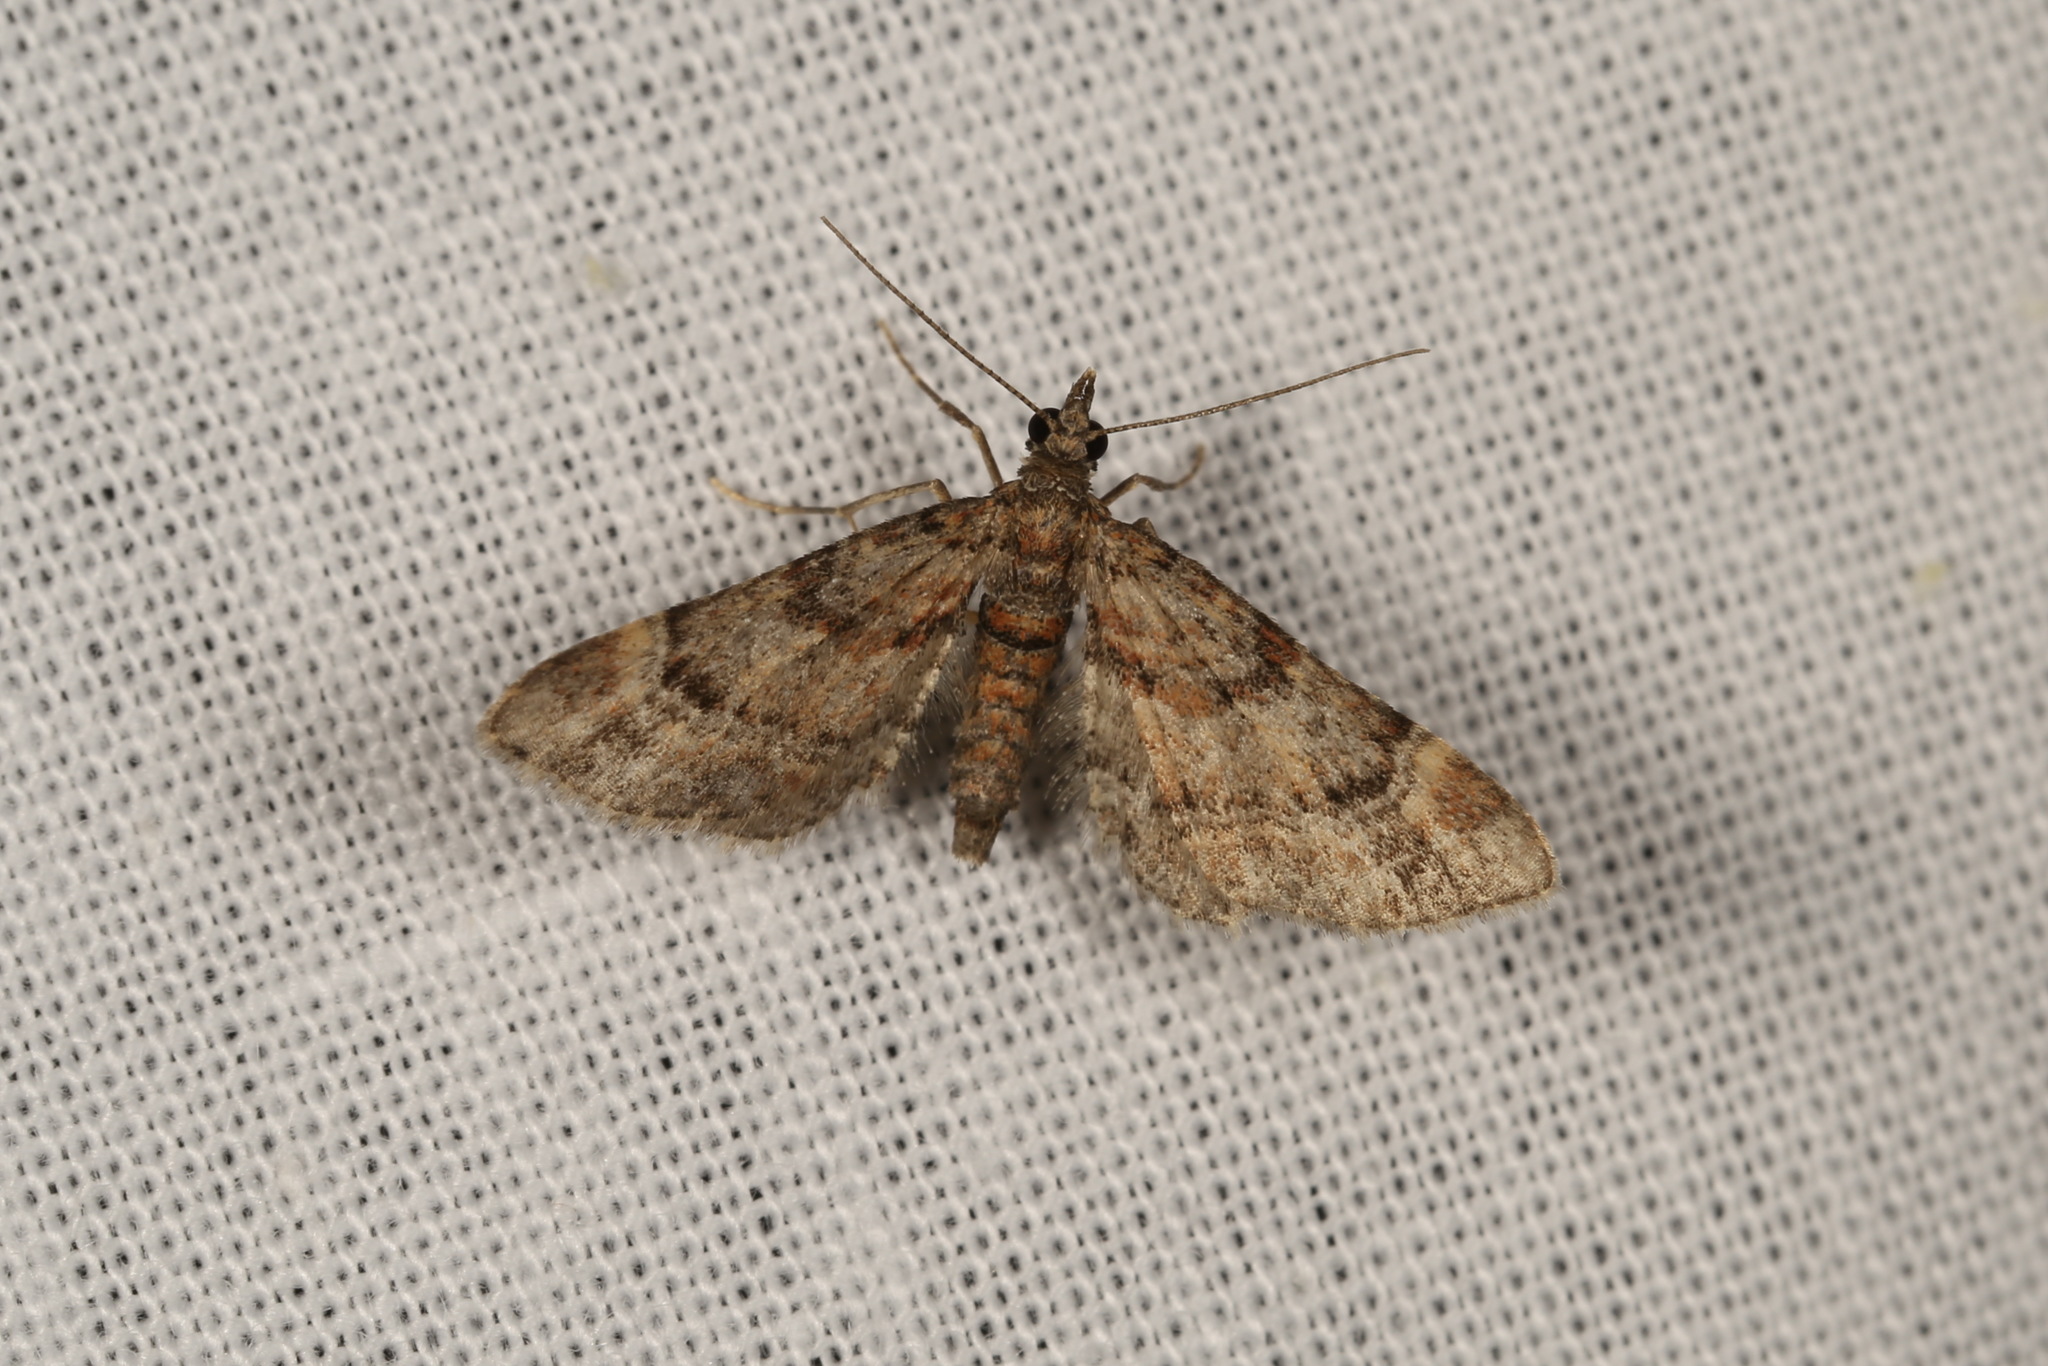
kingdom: Animalia
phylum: Arthropoda
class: Insecta
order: Lepidoptera
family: Geometridae
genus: Gymnoscelis
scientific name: Gymnoscelis rufifasciata
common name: Double-striped pug
